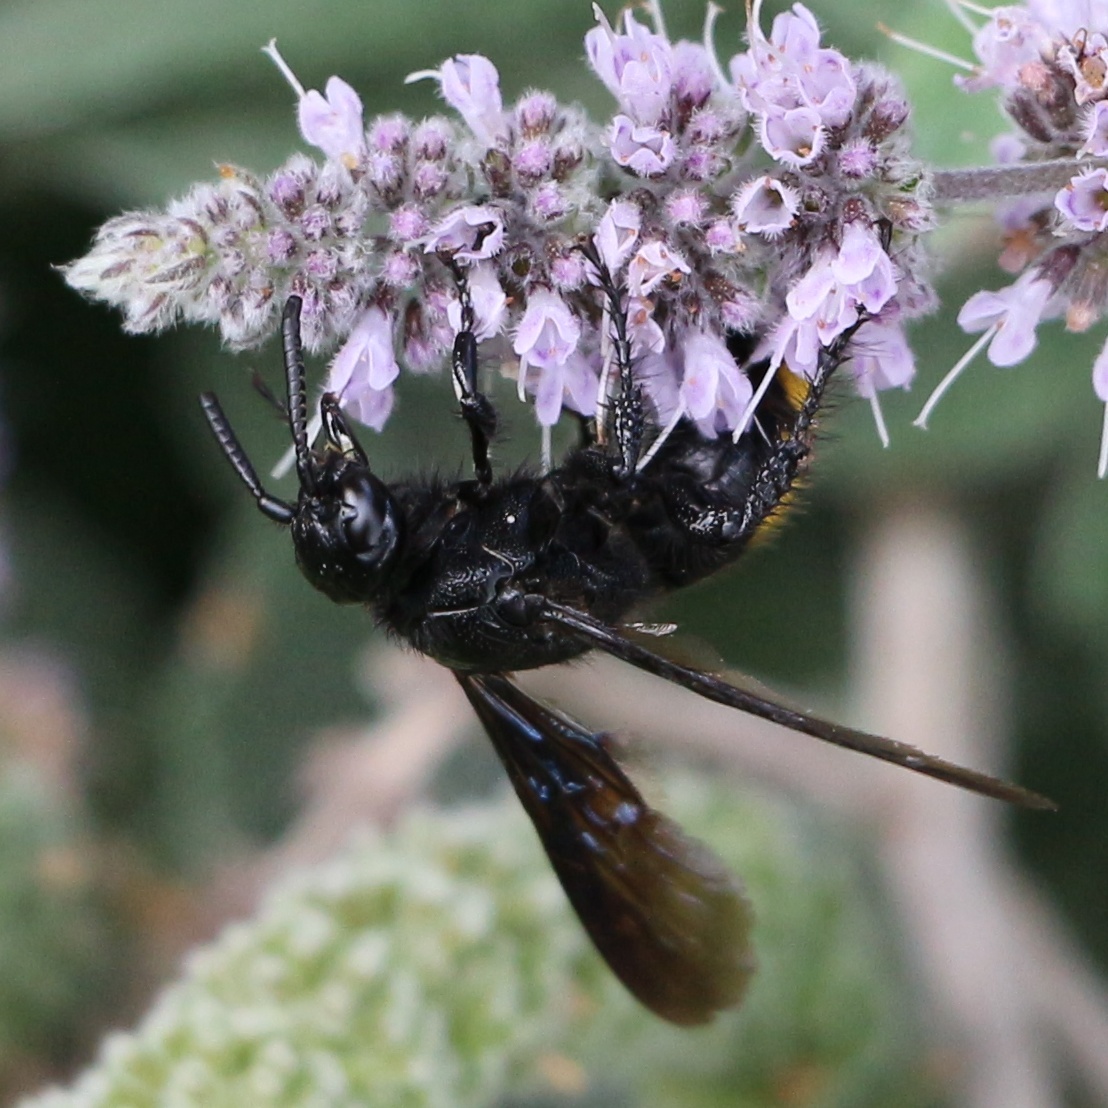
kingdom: Animalia
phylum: Arthropoda
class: Insecta
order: Hymenoptera
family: Scoliidae
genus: Scolia
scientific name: Scolia hirta
